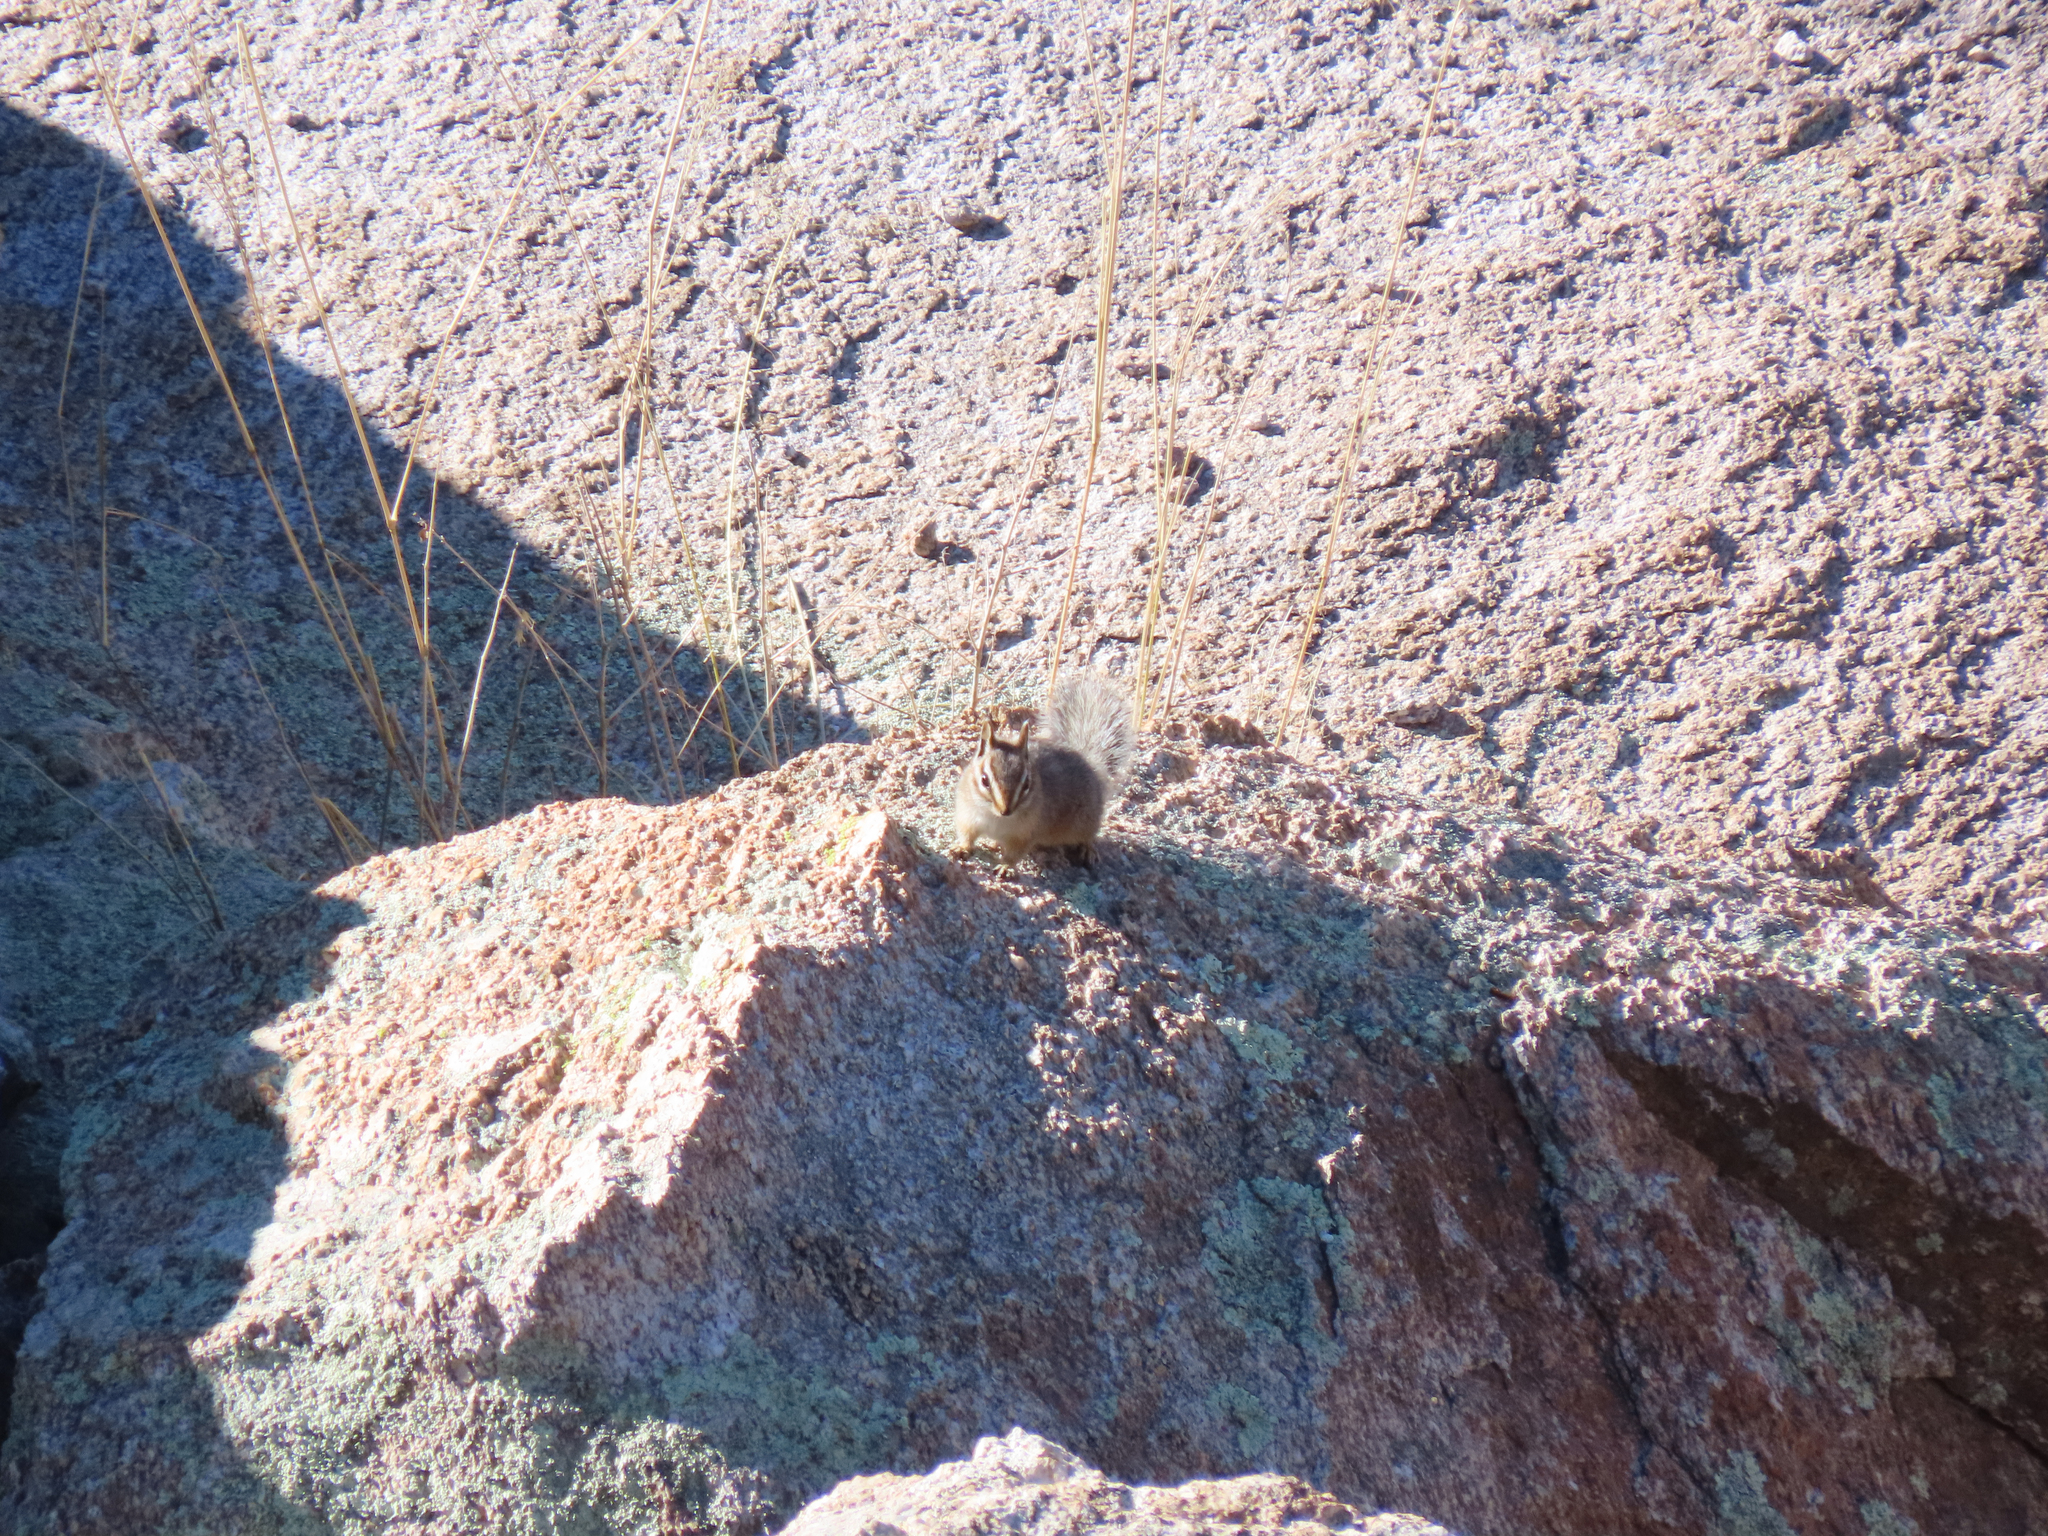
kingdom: Animalia
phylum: Chordata
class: Mammalia
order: Rodentia
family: Sciuridae
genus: Tamias
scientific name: Tamias dorsalis
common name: Cliff chipmunk
